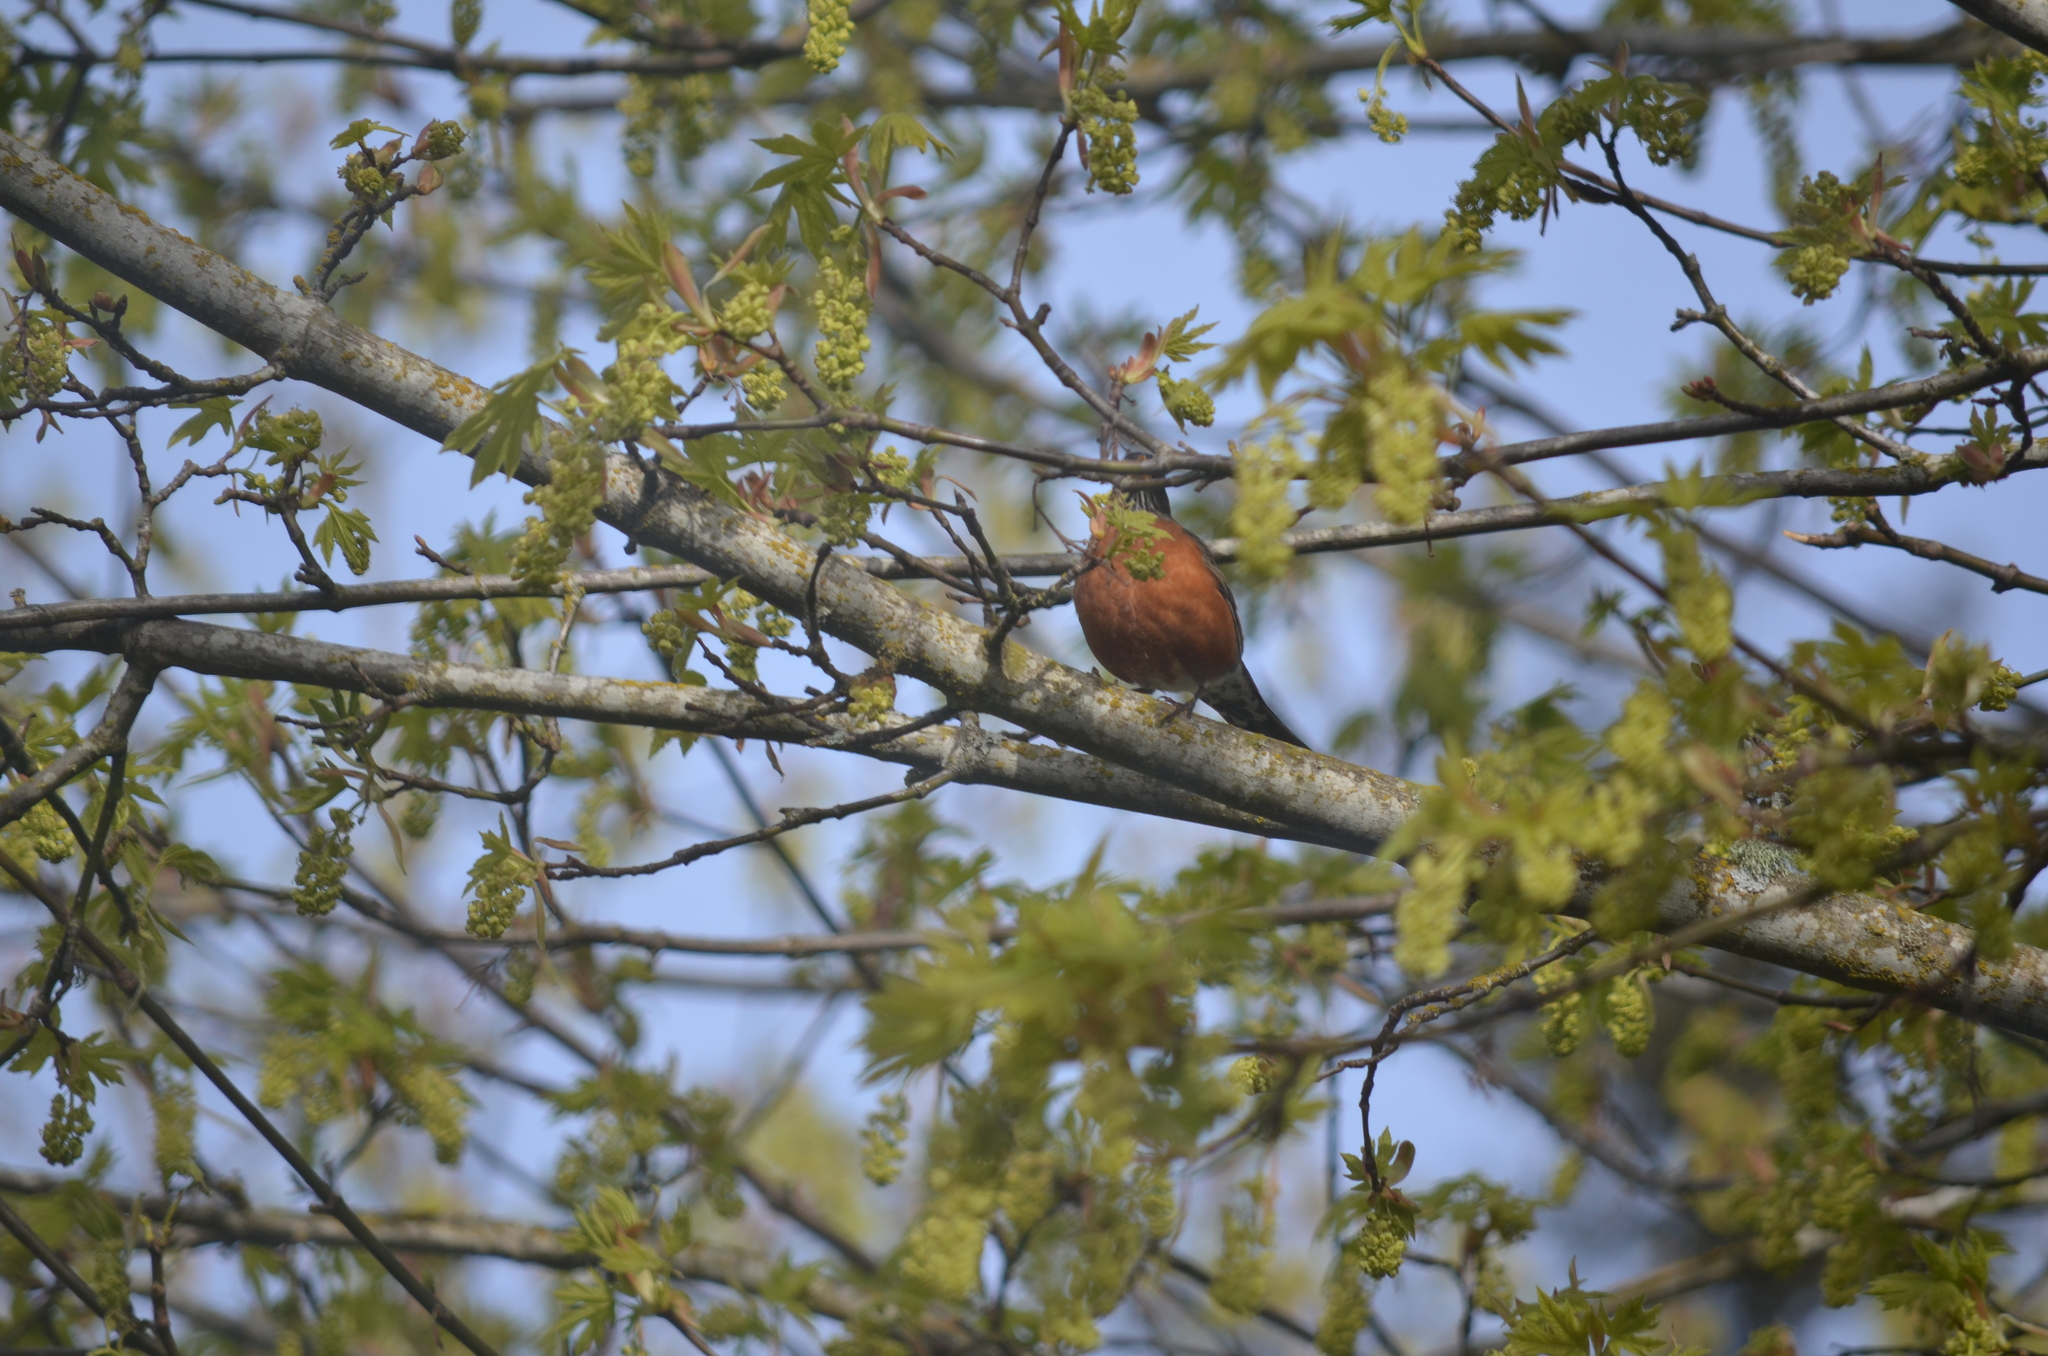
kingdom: Animalia
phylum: Chordata
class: Aves
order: Passeriformes
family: Turdidae
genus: Turdus
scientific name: Turdus migratorius
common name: American robin
